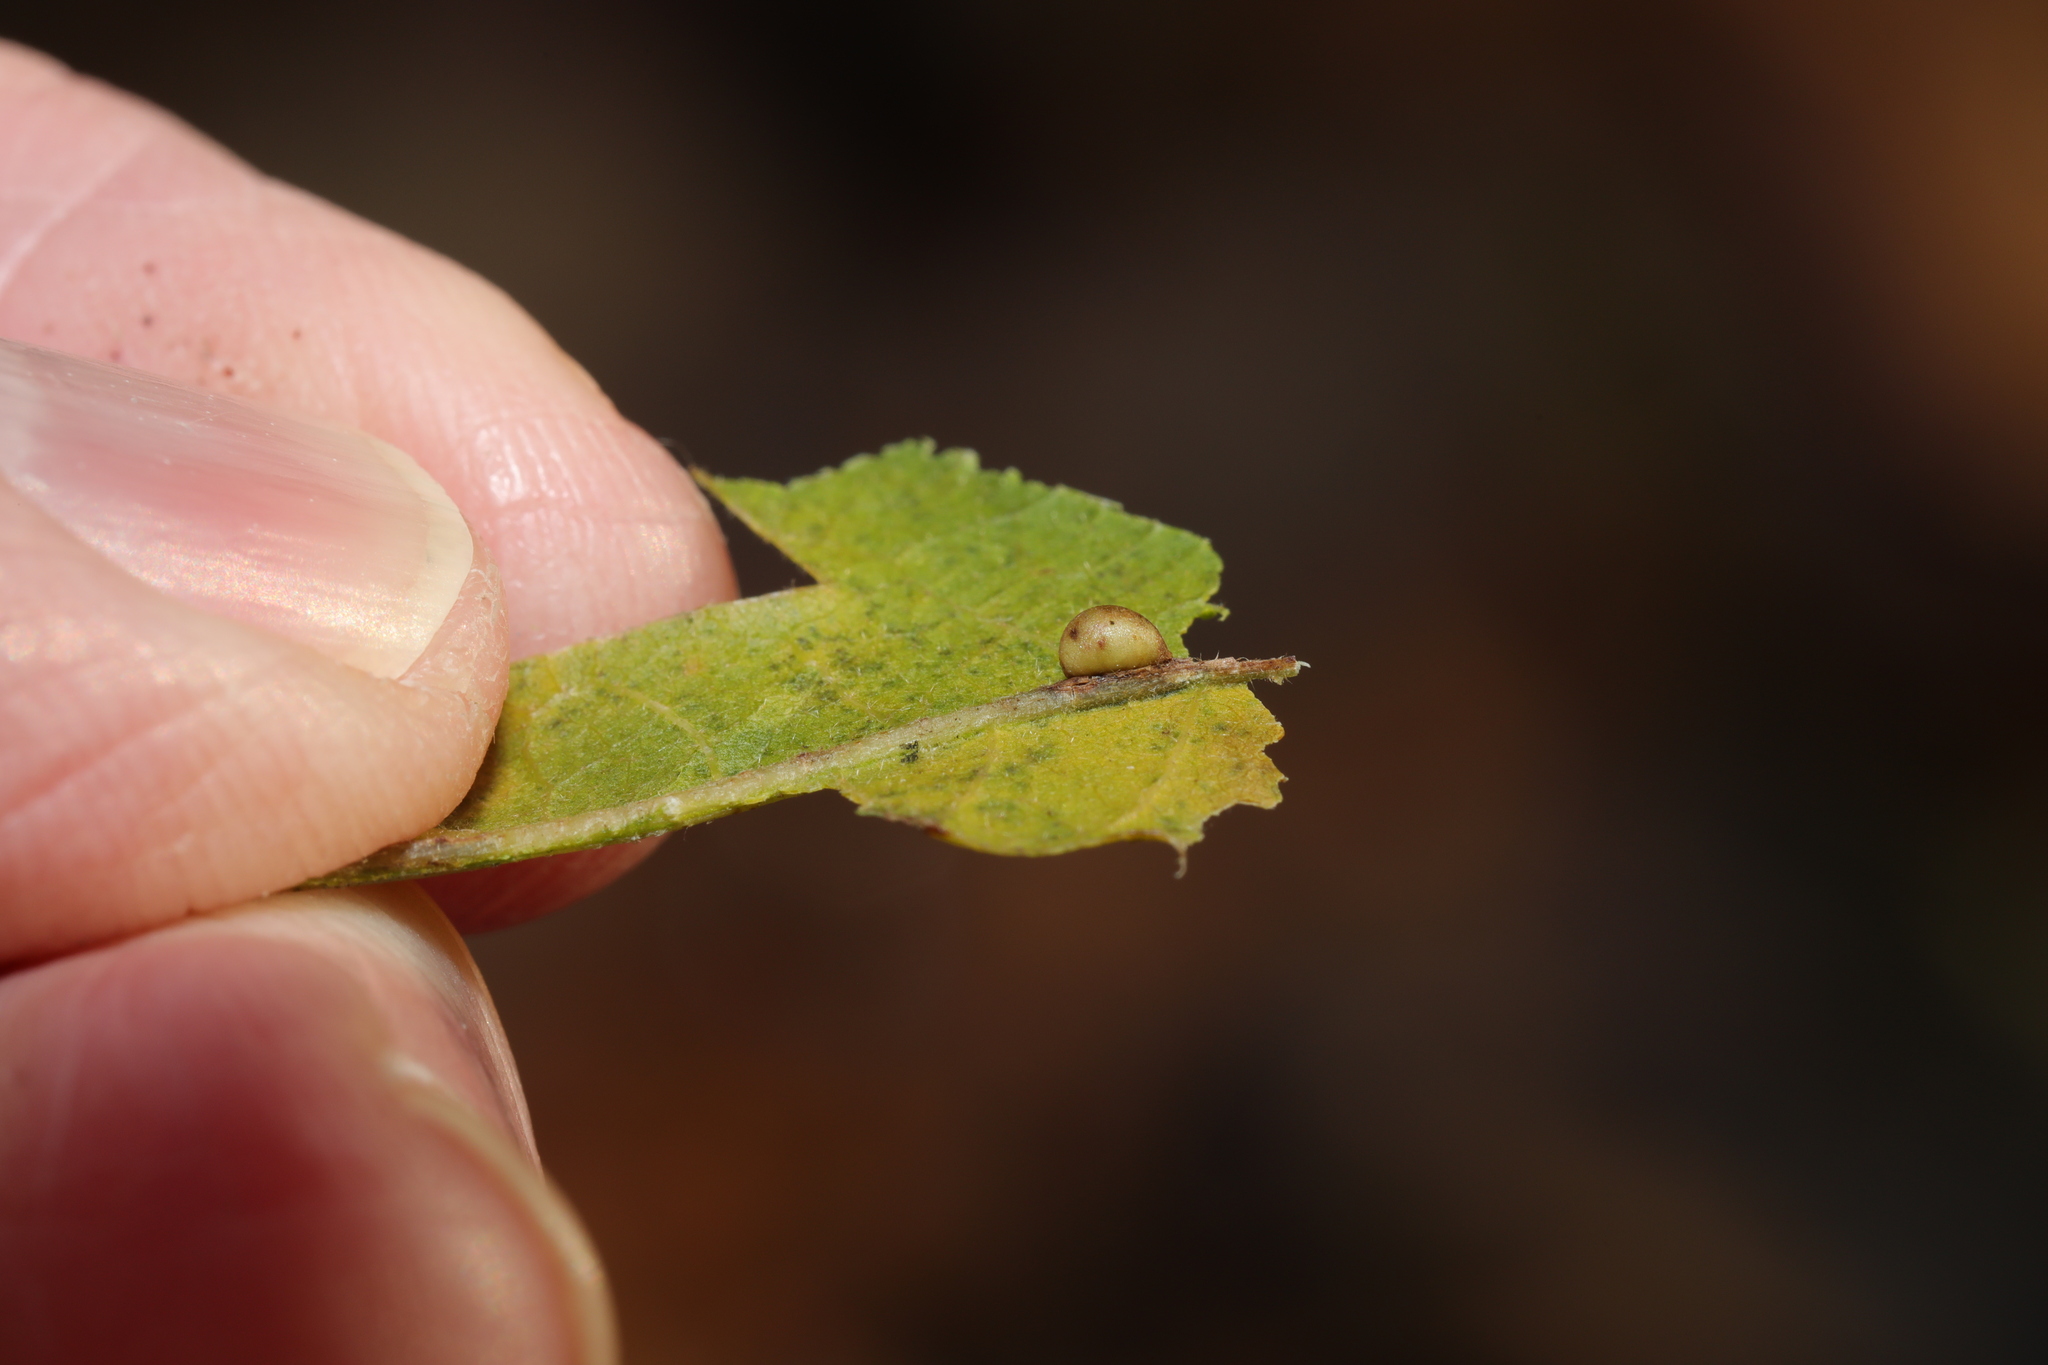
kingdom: Animalia
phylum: Arthropoda
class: Insecta
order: Hymenoptera
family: Cynipidae
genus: Neuroterus
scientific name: Neuroterus saliens
